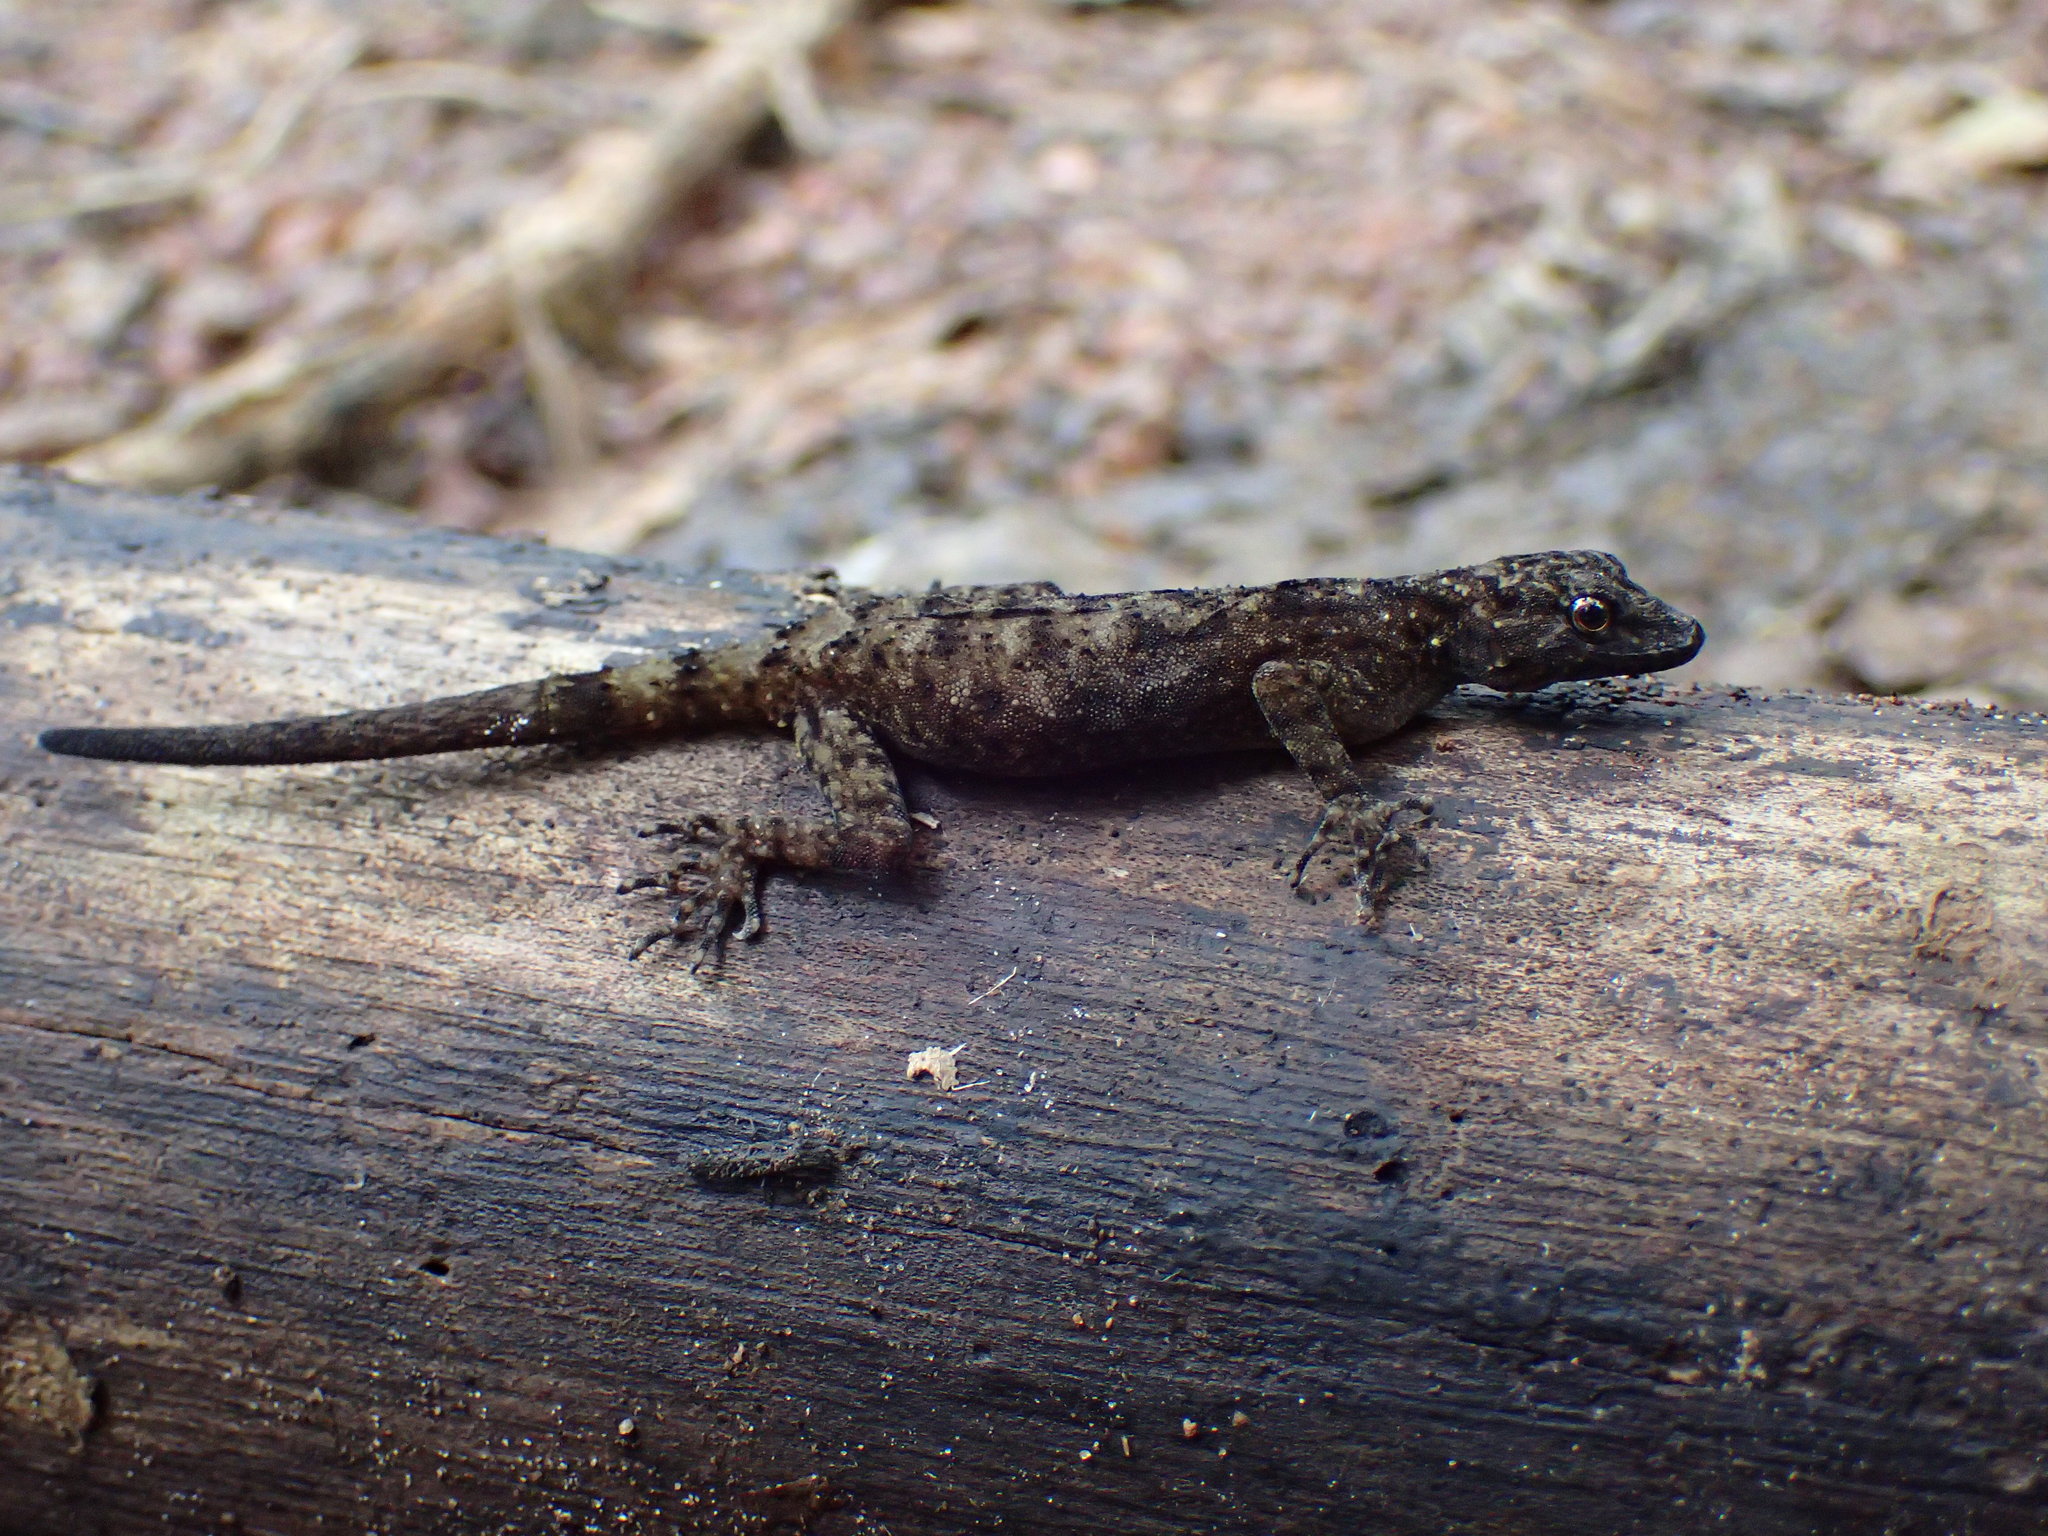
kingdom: Animalia
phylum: Chordata
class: Squamata
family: Gekkonidae
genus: Cnemaspis
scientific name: Cnemaspis spinicollis
